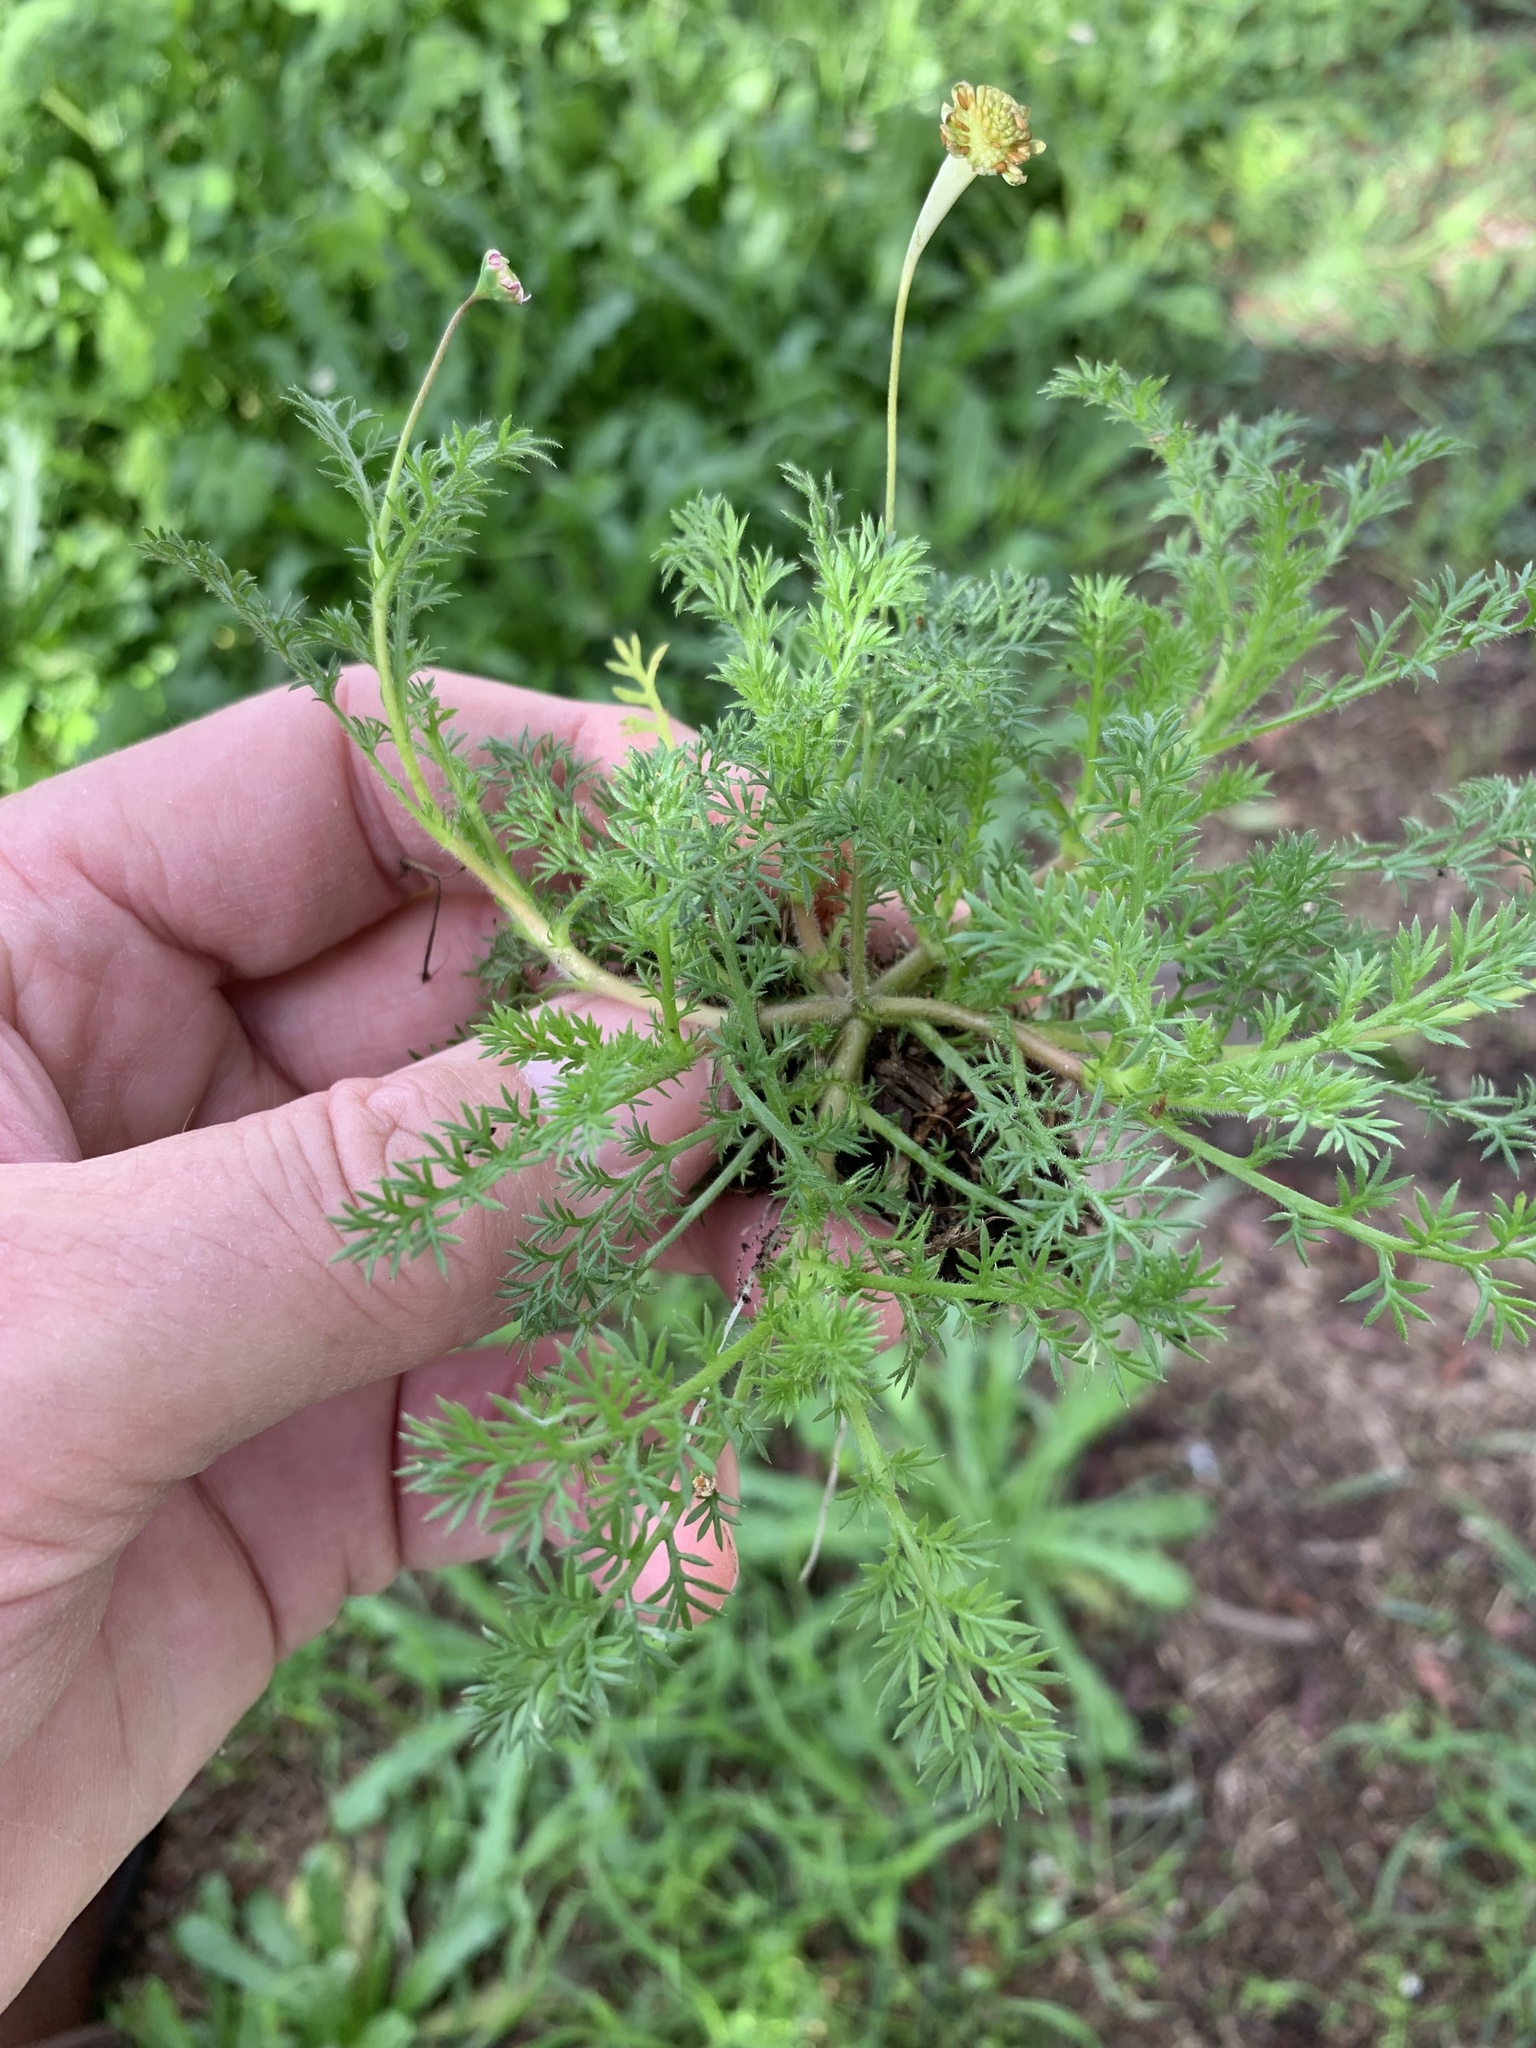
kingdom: Plantae
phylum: Tracheophyta
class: Magnoliopsida
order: Asterales
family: Asteraceae
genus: Cotula
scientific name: Cotula turbinata
